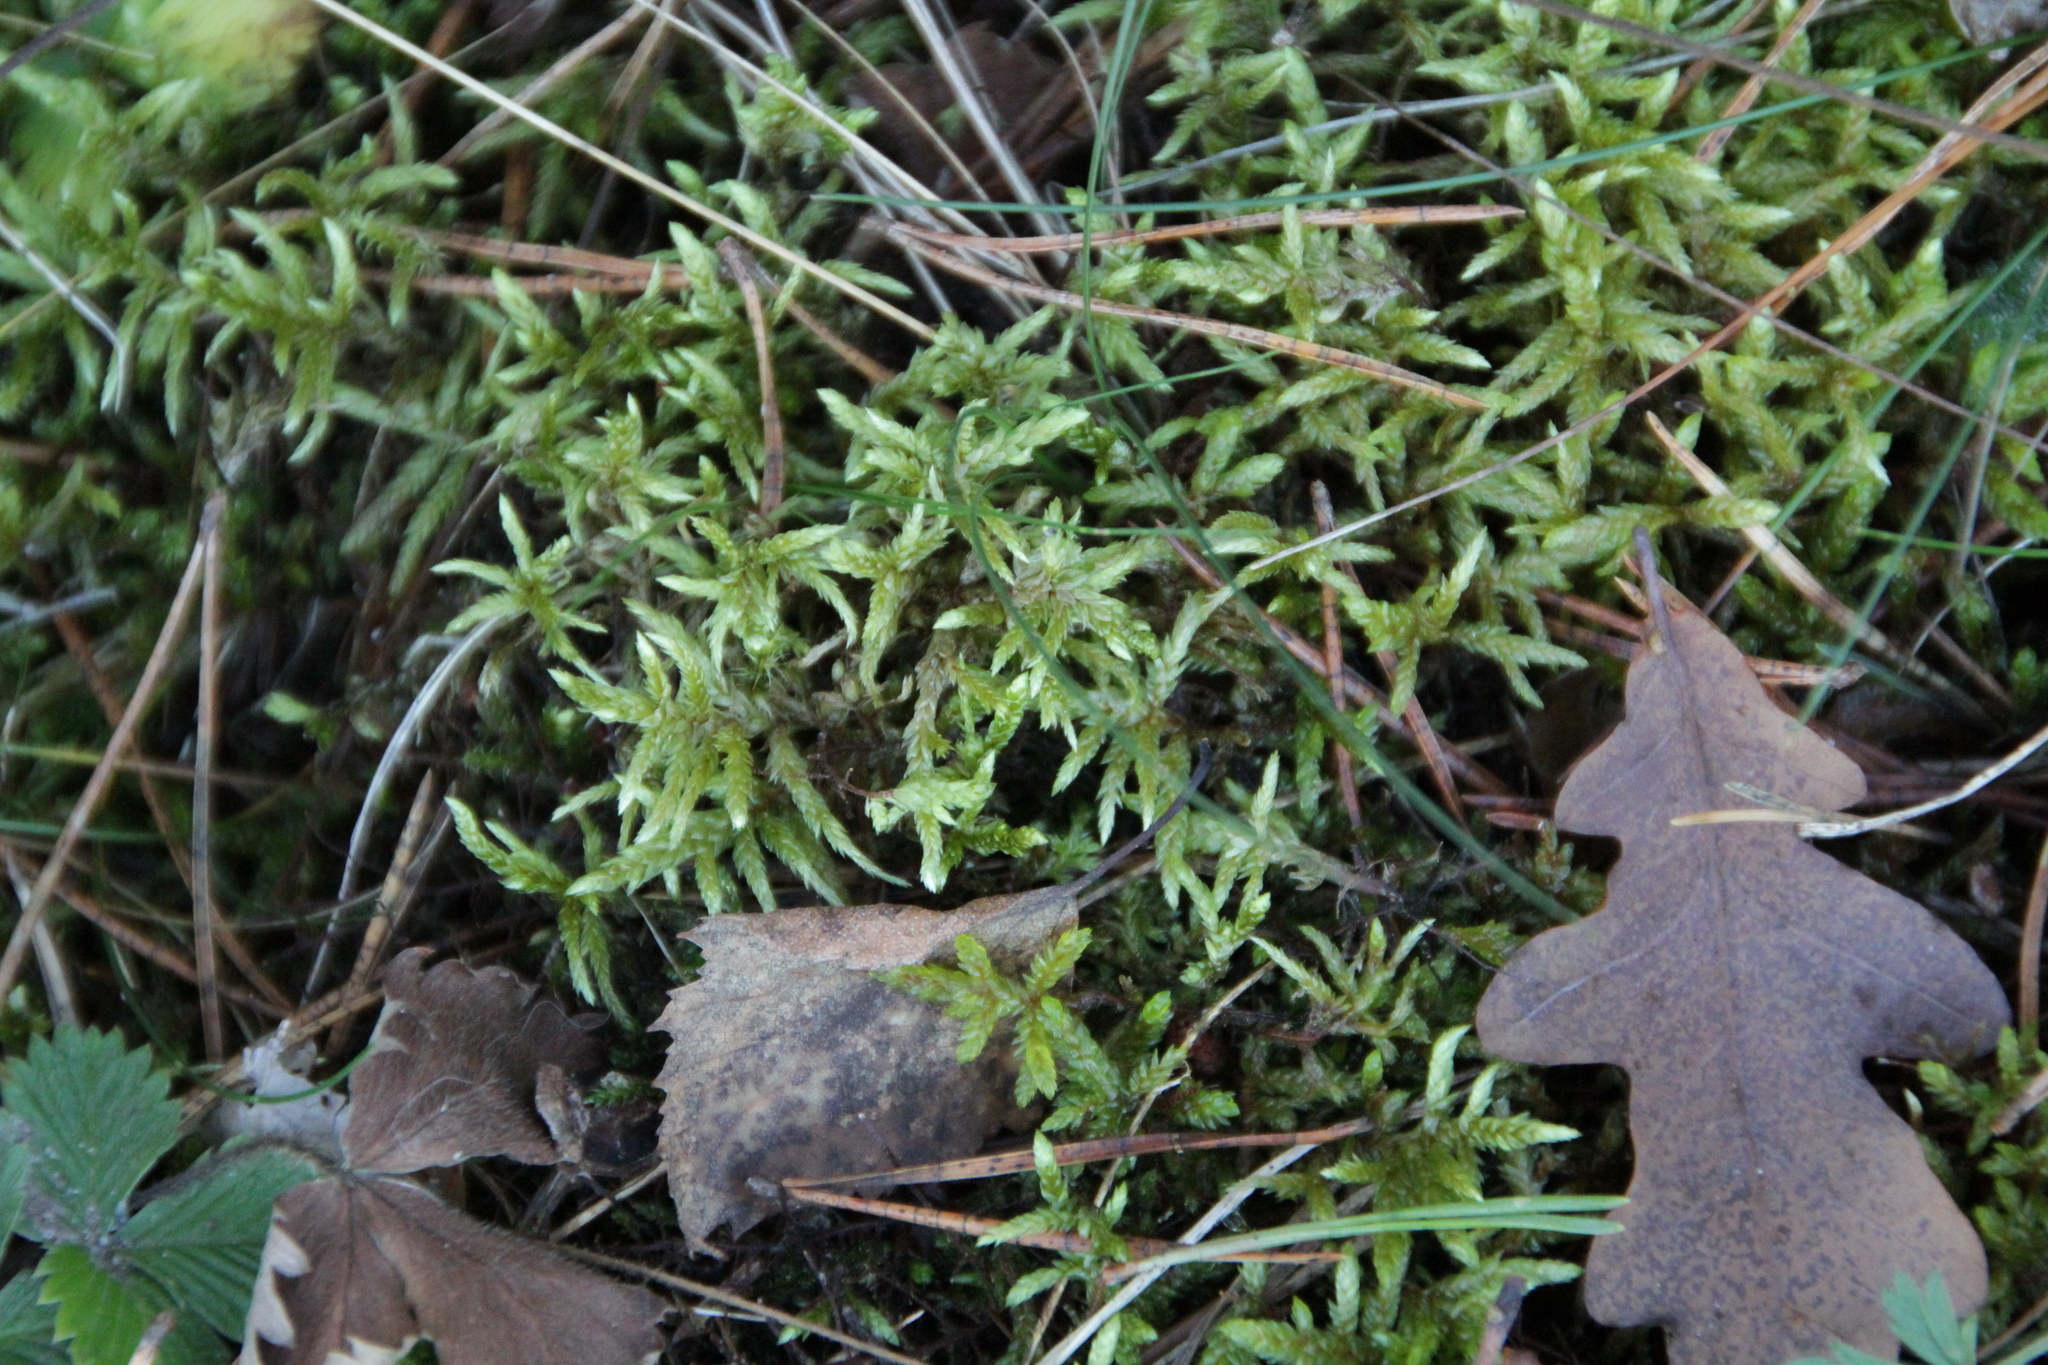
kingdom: Plantae
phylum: Bryophyta
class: Bryopsida
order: Hypnales
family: Hylocomiaceae
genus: Pleurozium
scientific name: Pleurozium schreberi
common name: Red-stemmed feather moss
